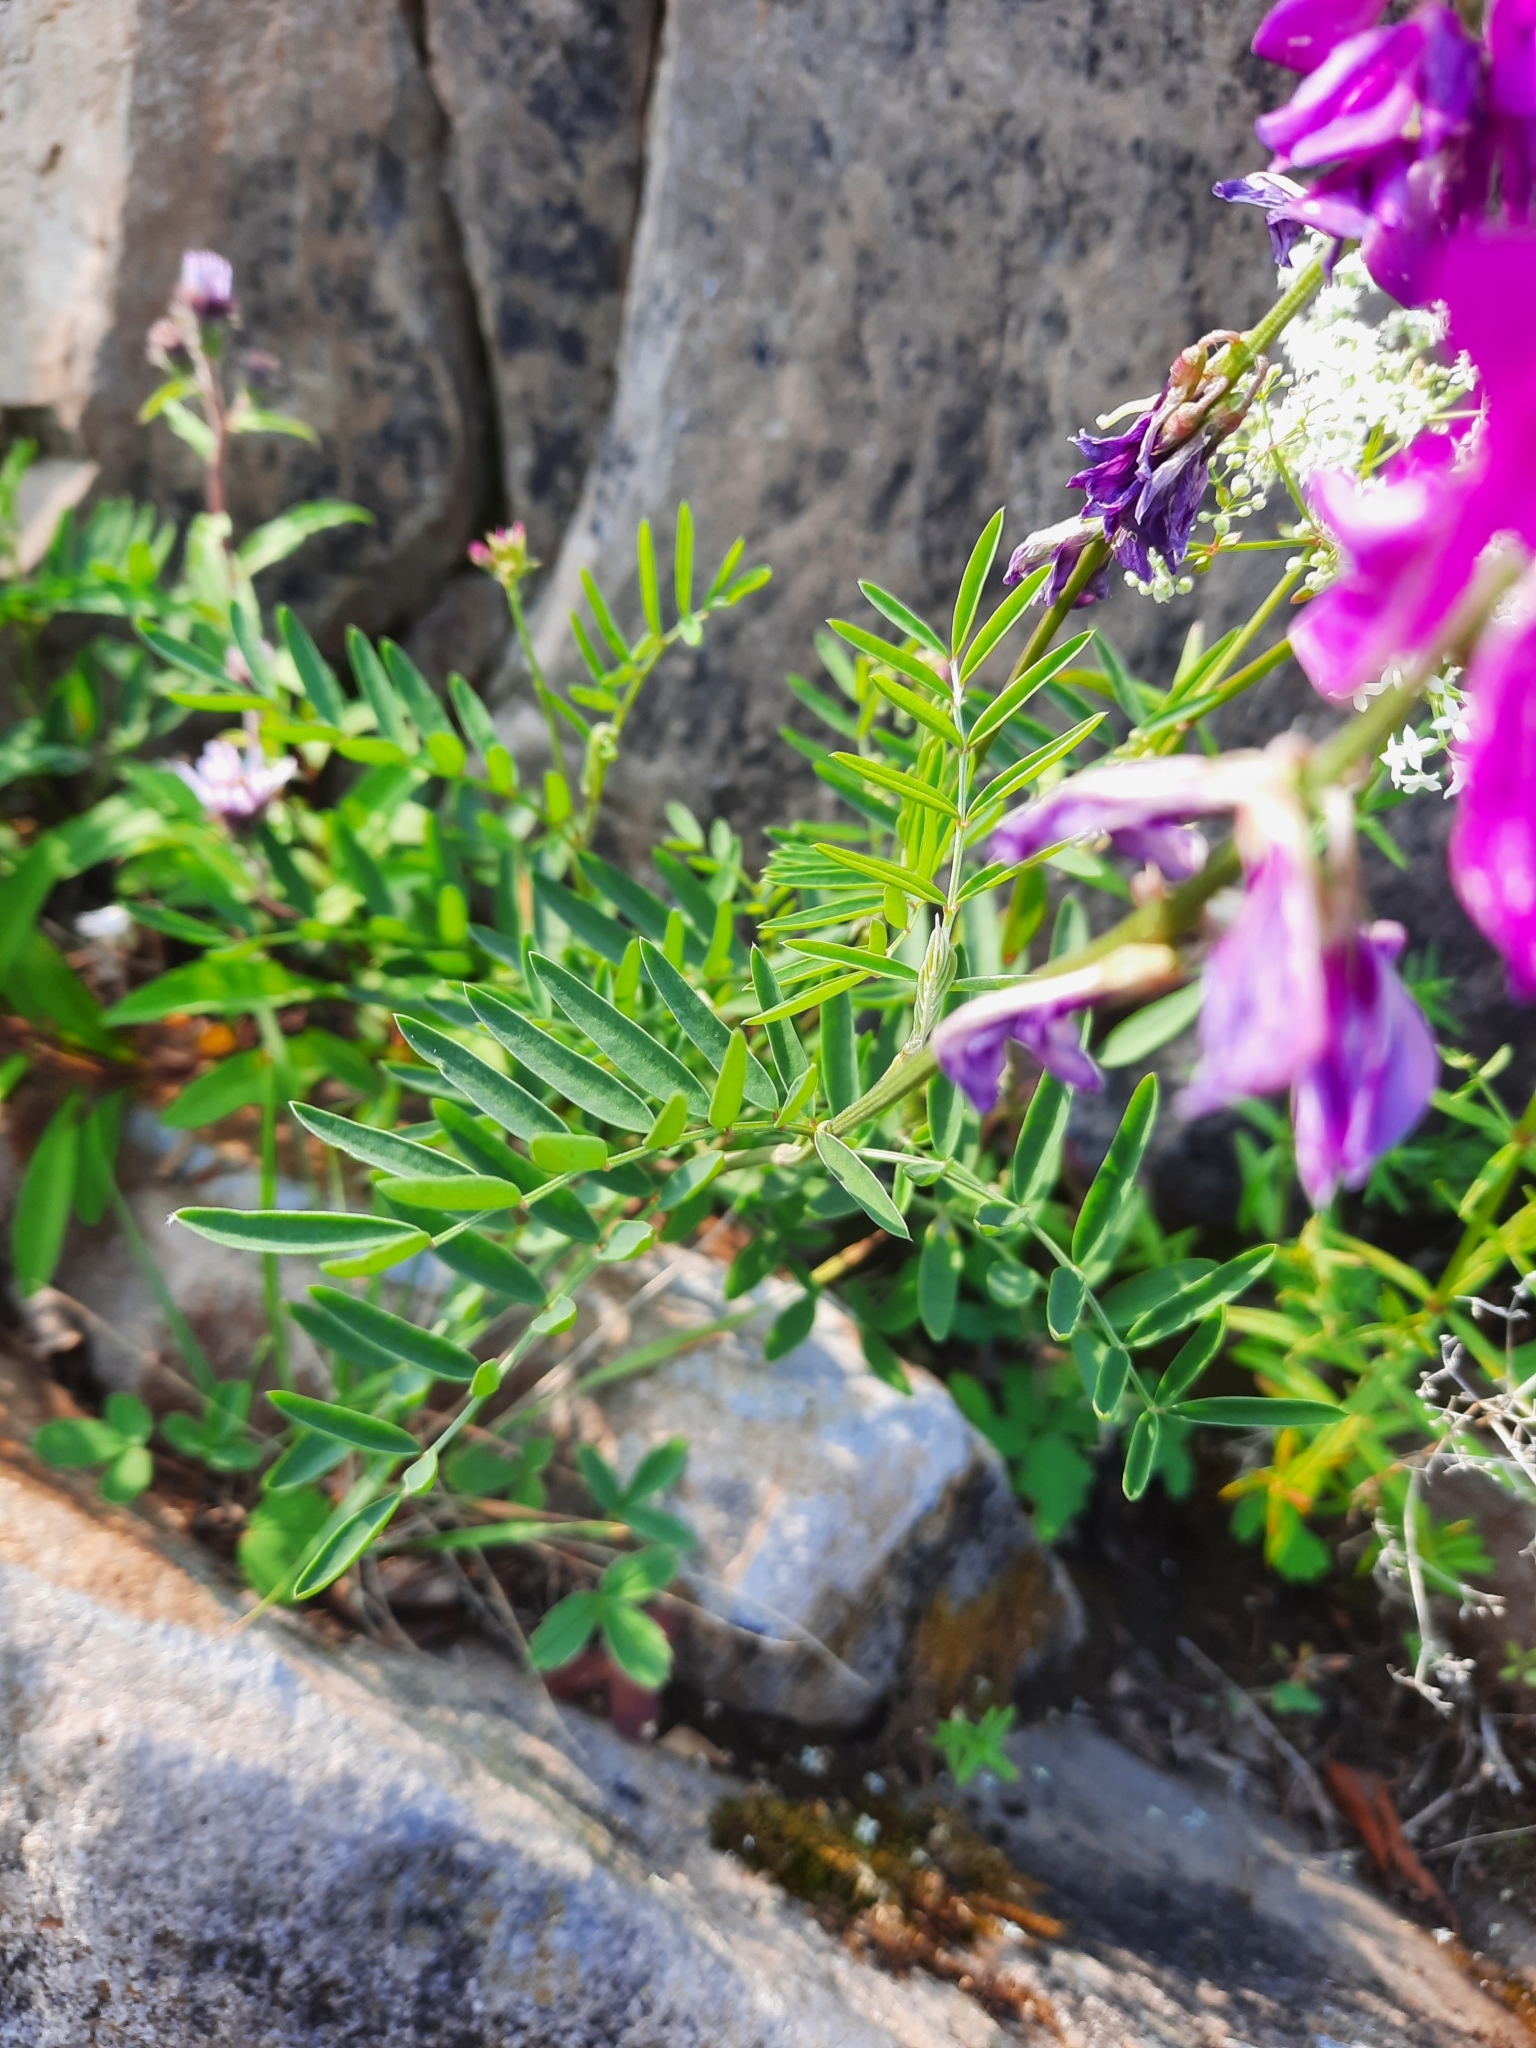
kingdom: Plantae
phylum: Tracheophyta
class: Magnoliopsida
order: Fabales
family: Fabaceae
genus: Hedysarum
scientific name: Hedysarum boreale
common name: Northern sweet-vetch
